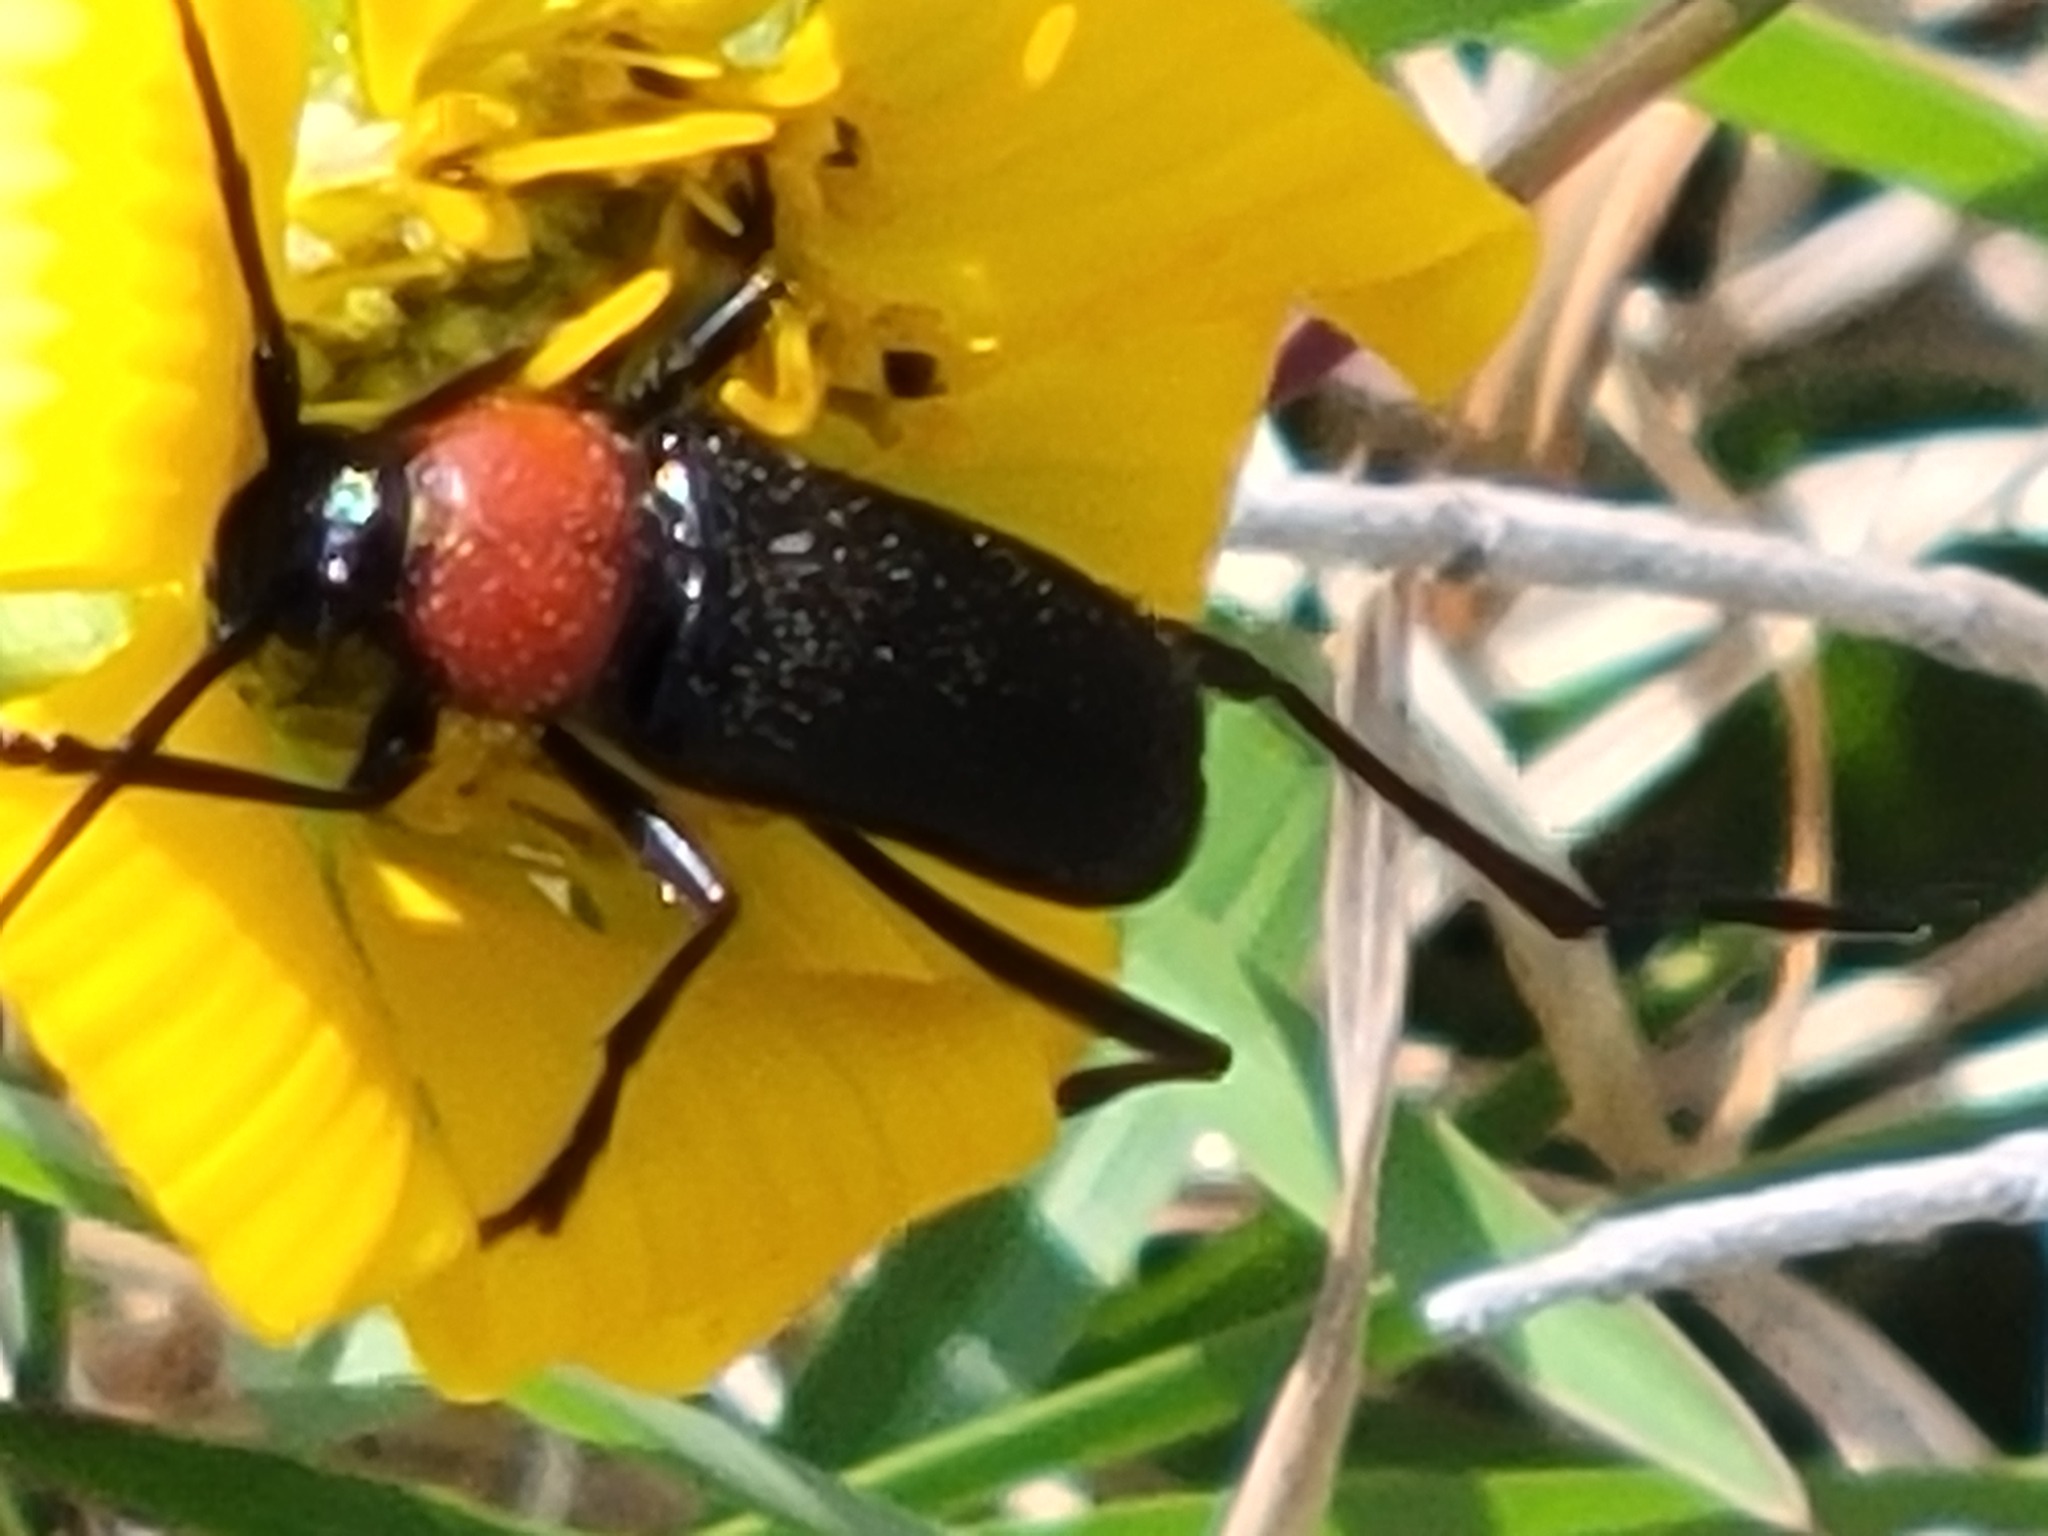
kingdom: Animalia
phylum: Arthropoda
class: Insecta
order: Coleoptera
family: Cerambycidae
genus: Batyle
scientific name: Batyle ignicollis
